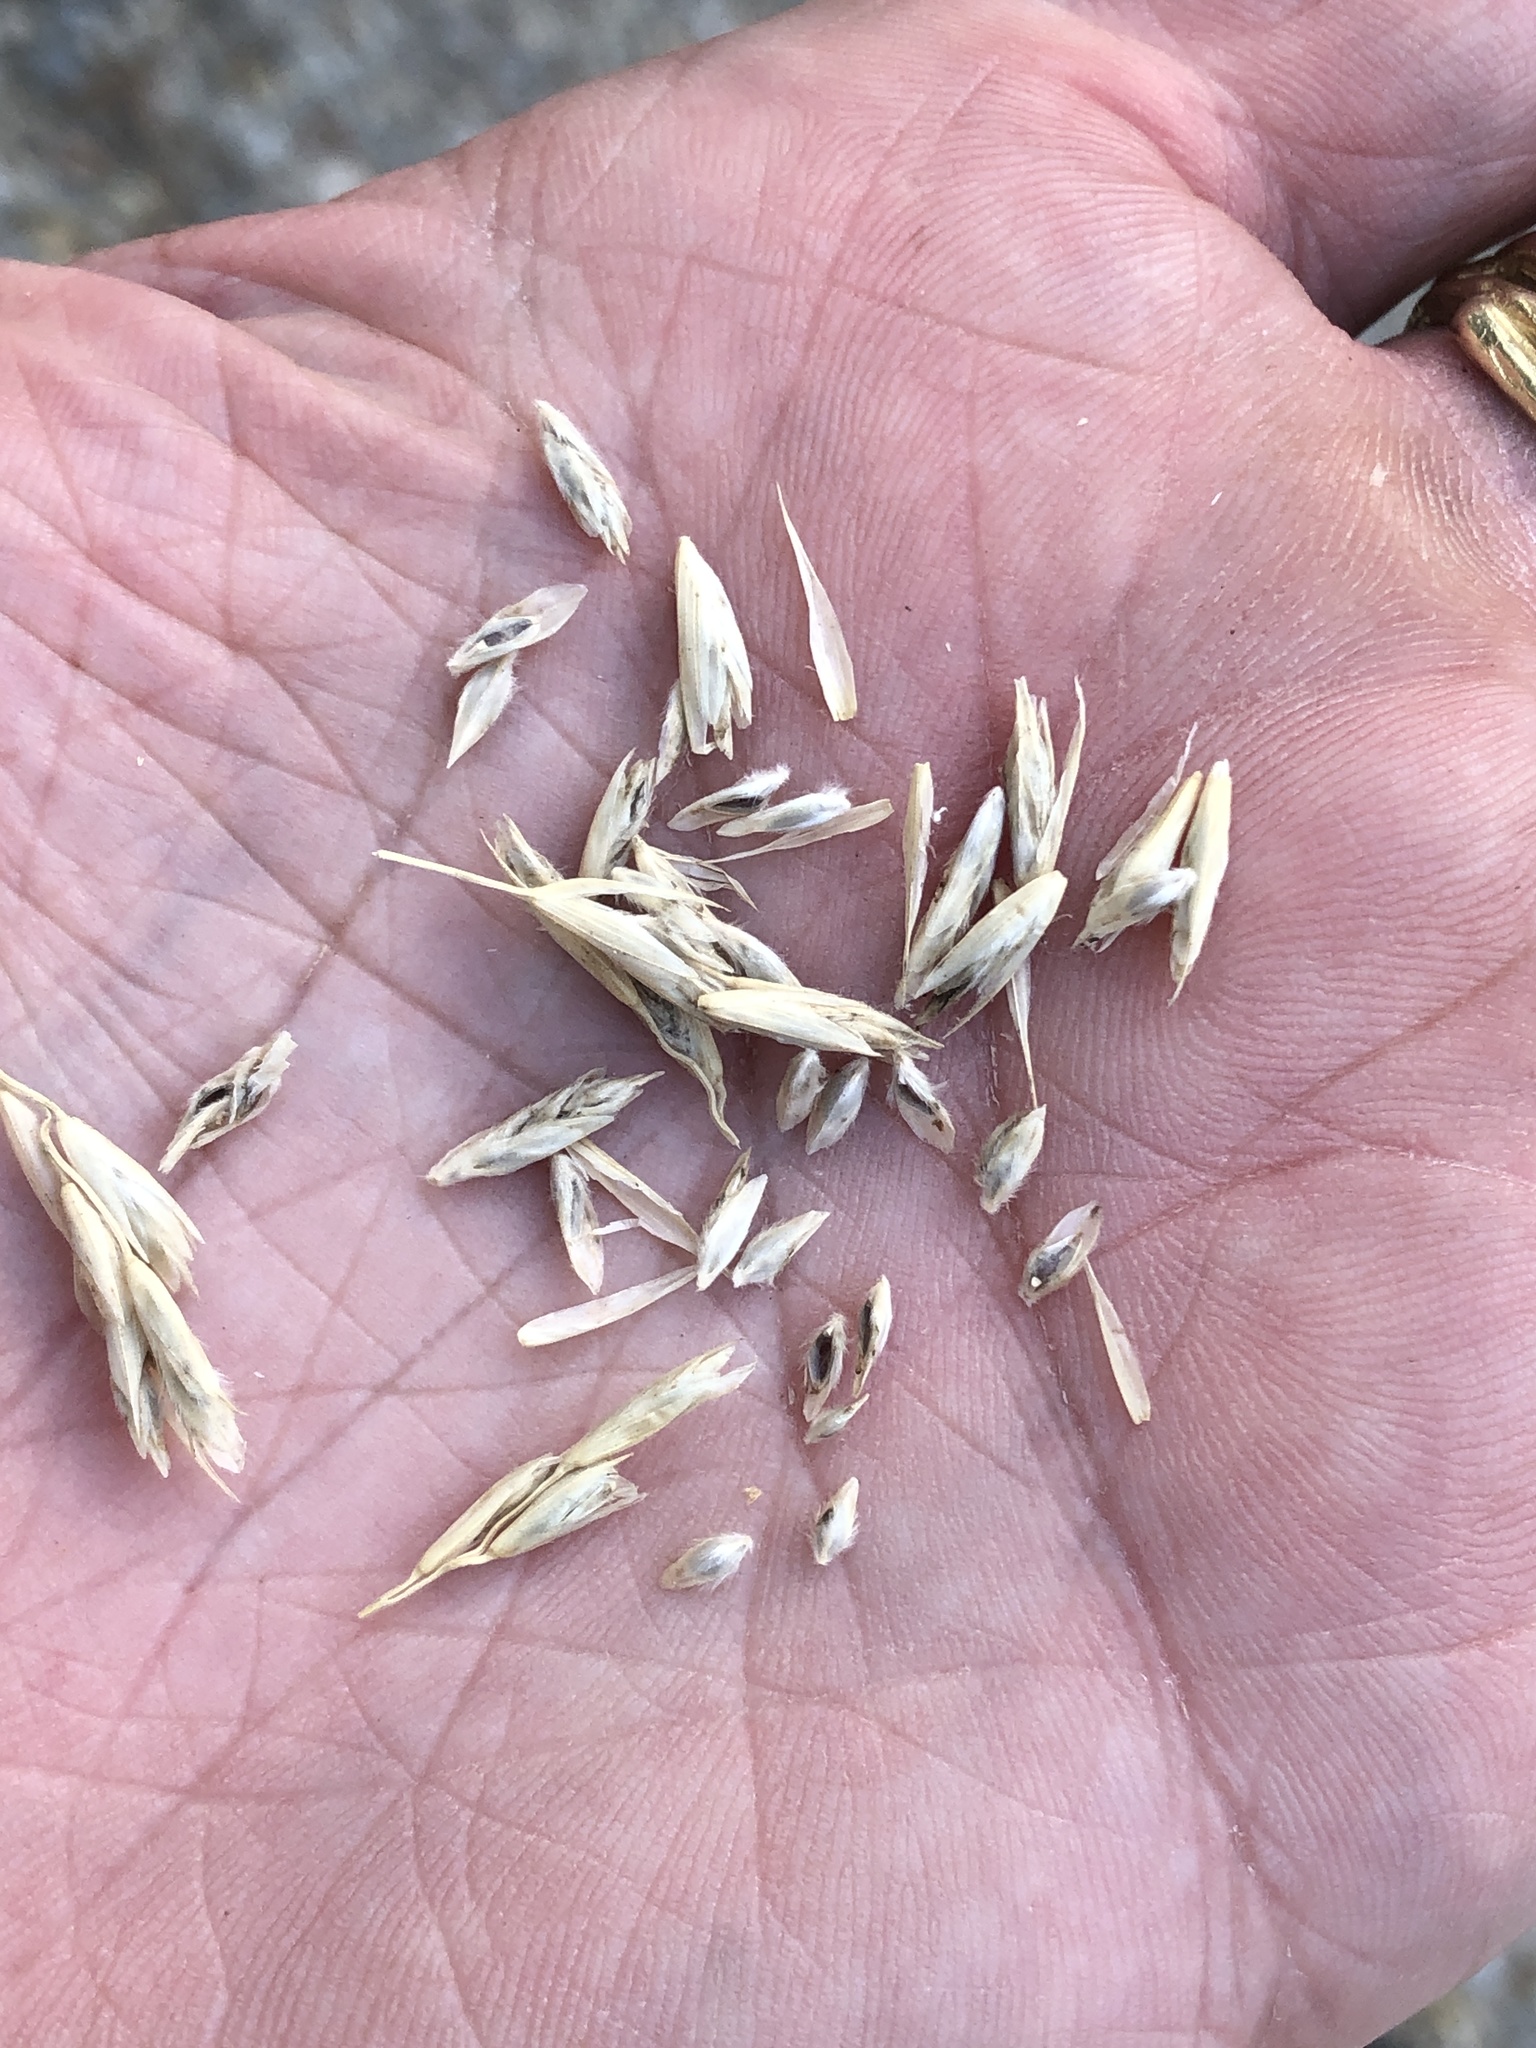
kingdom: Plantae
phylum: Tracheophyta
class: Liliopsida
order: Poales
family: Poaceae
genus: Tridentopsis
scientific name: Tridentopsis mutica
